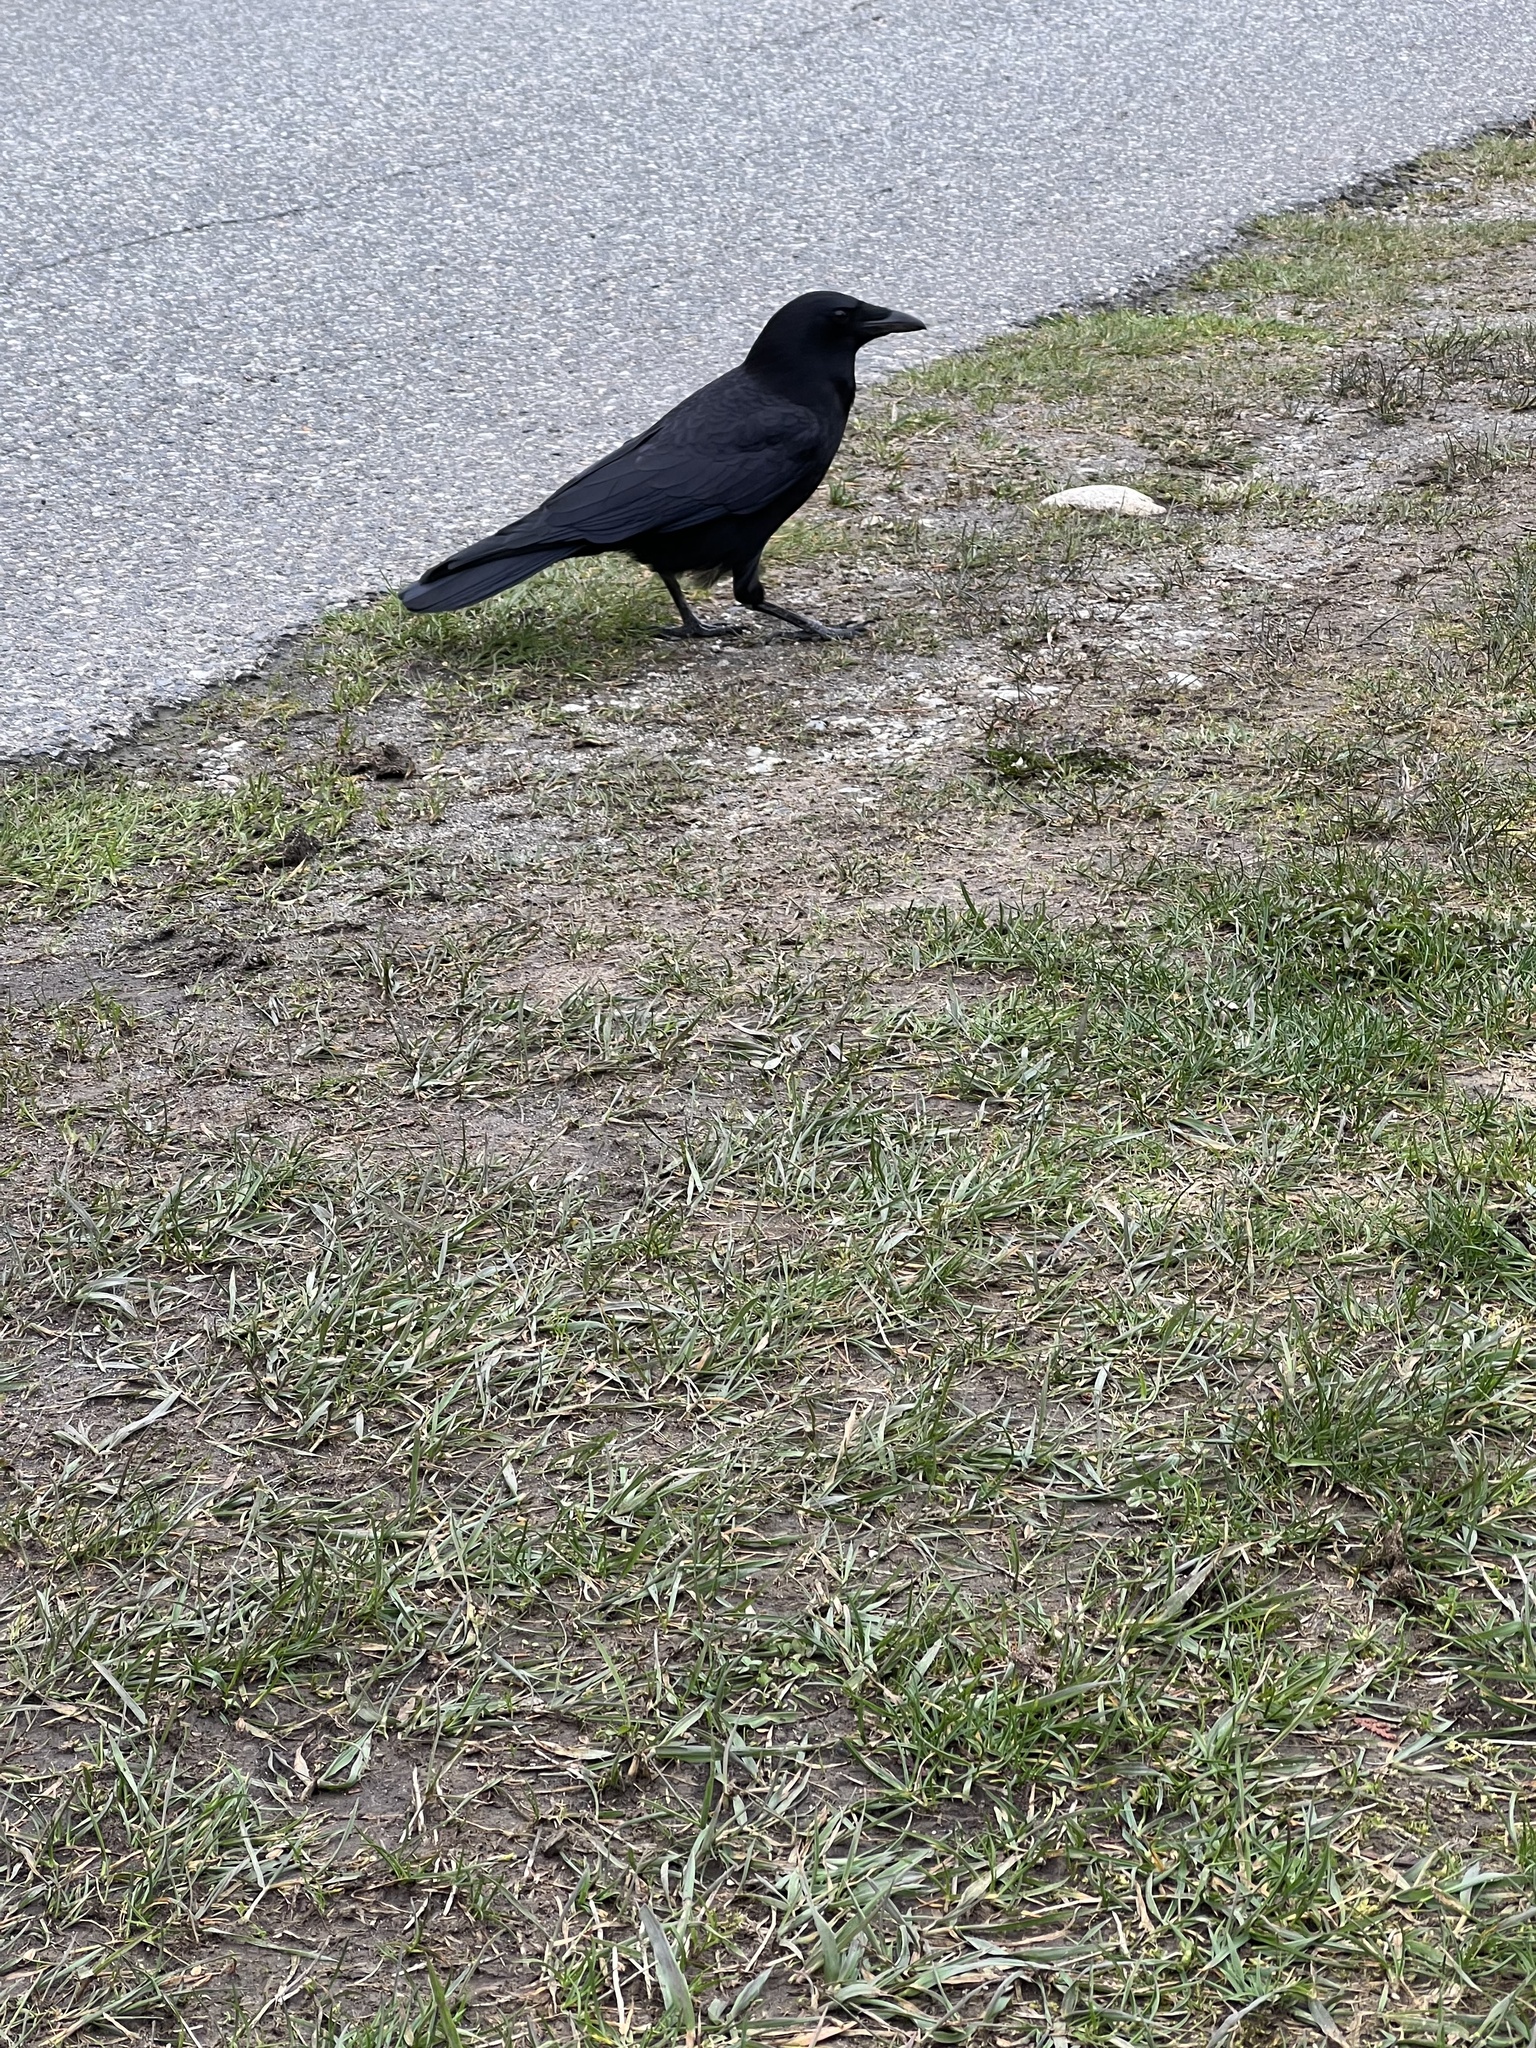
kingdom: Animalia
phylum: Chordata
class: Aves
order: Passeriformes
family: Corvidae
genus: Corvus
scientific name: Corvus brachyrhynchos
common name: American crow
